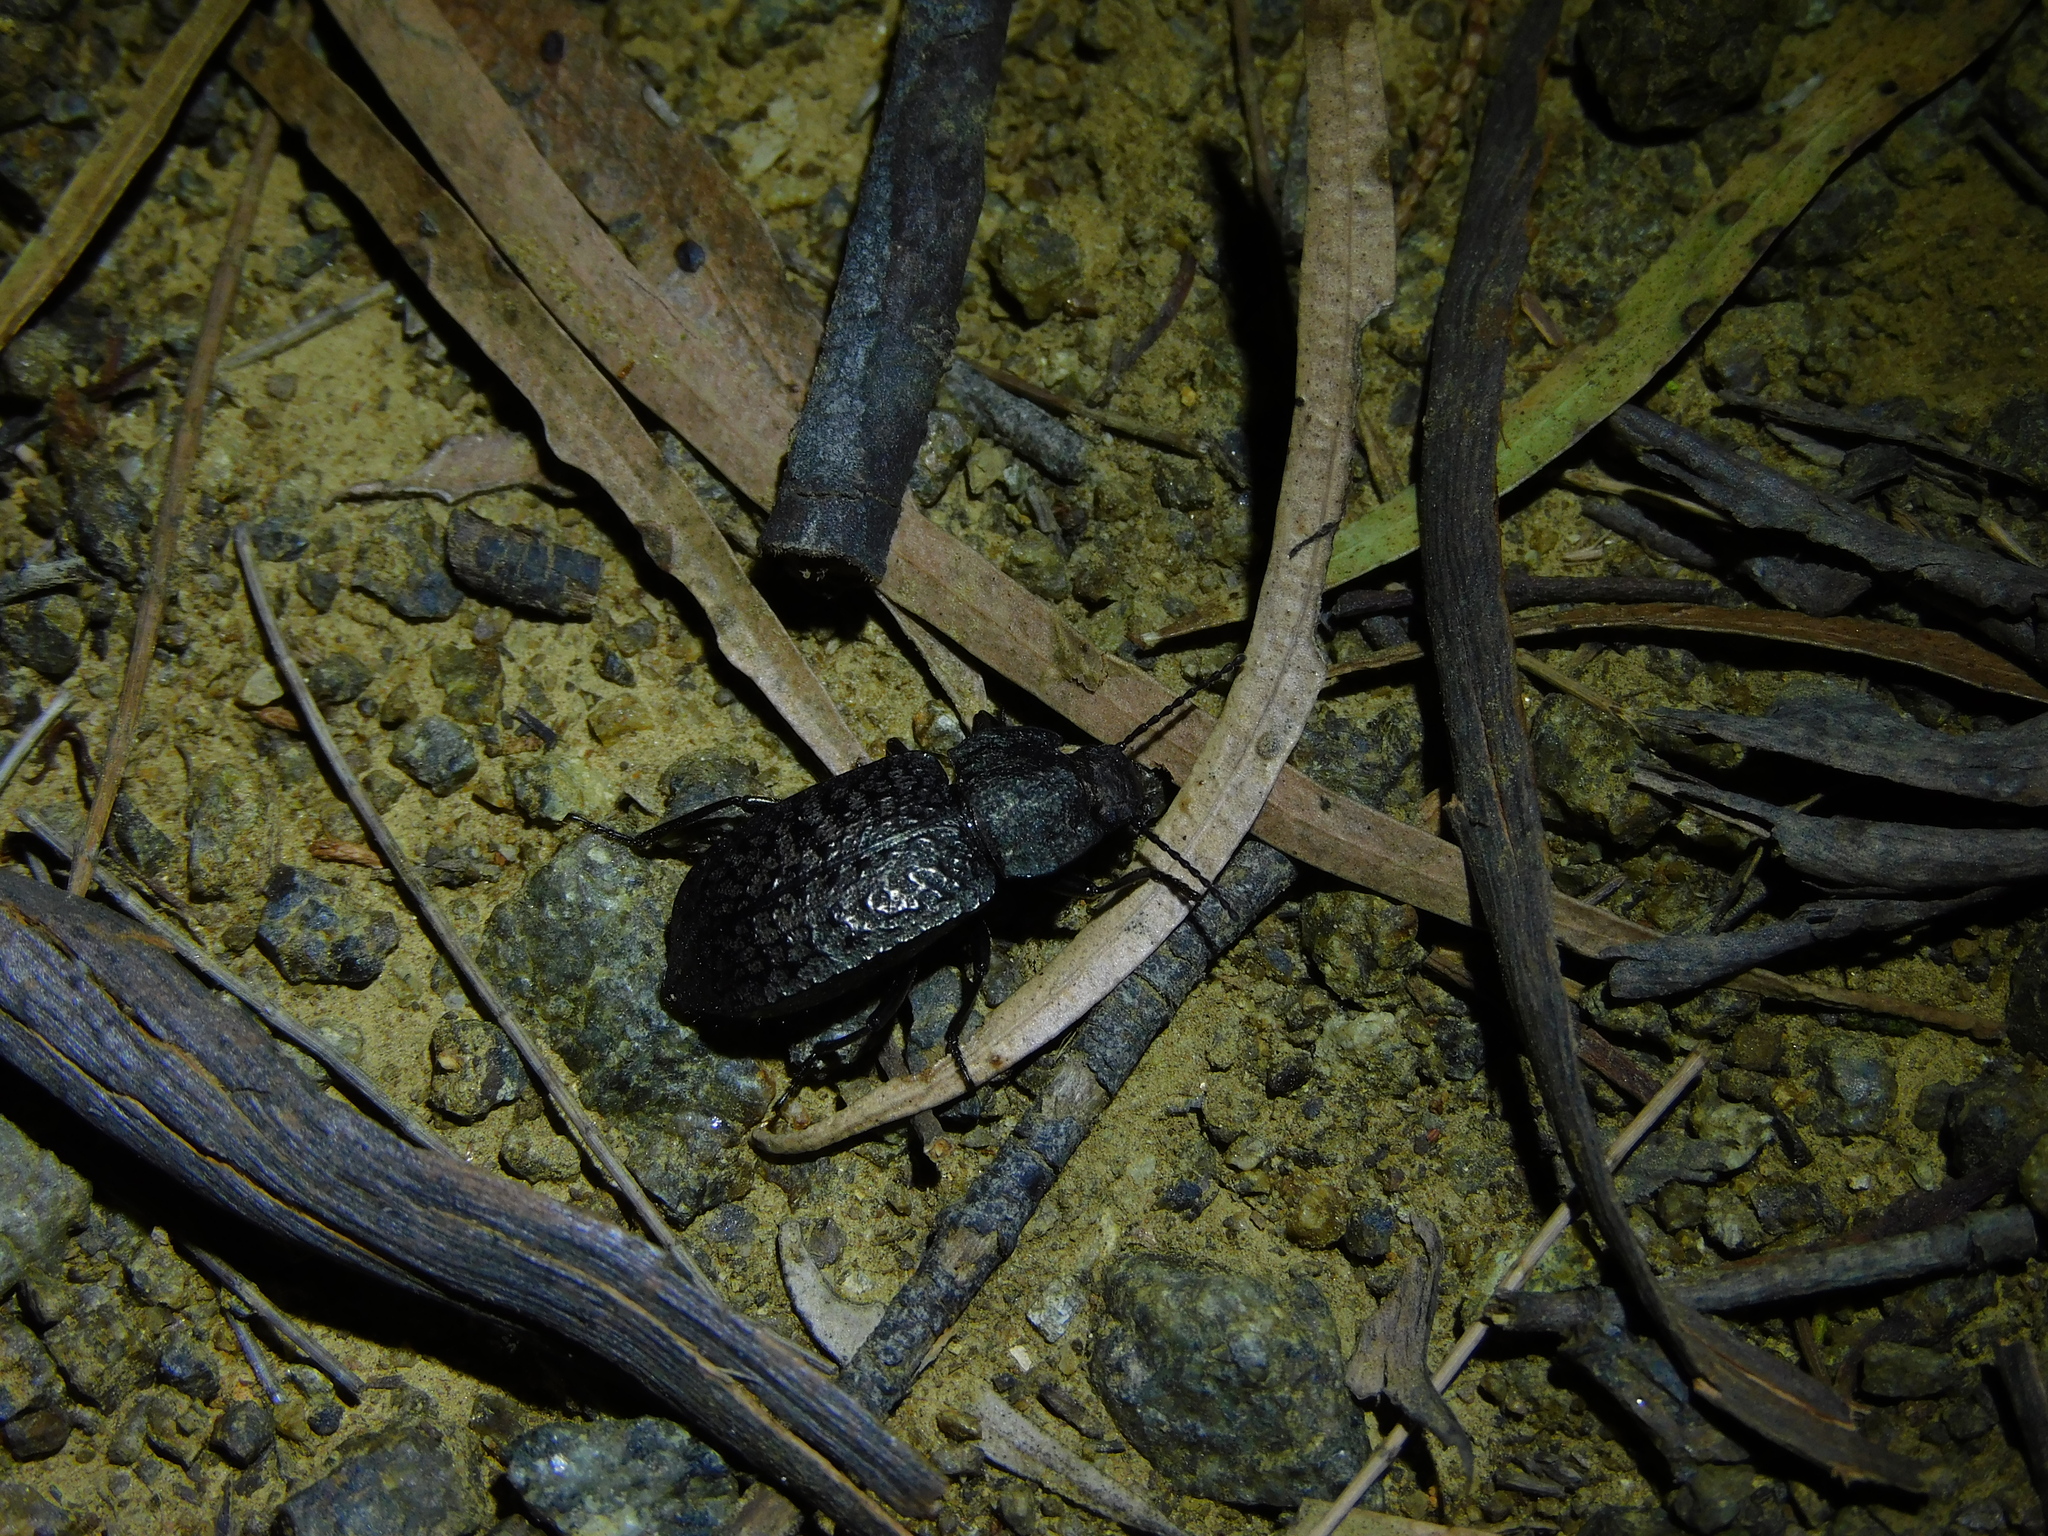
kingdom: Animalia
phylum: Arthropoda
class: Insecta
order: Coleoptera
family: Tenebrionidae
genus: Coripera
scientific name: Coripera deplanata
